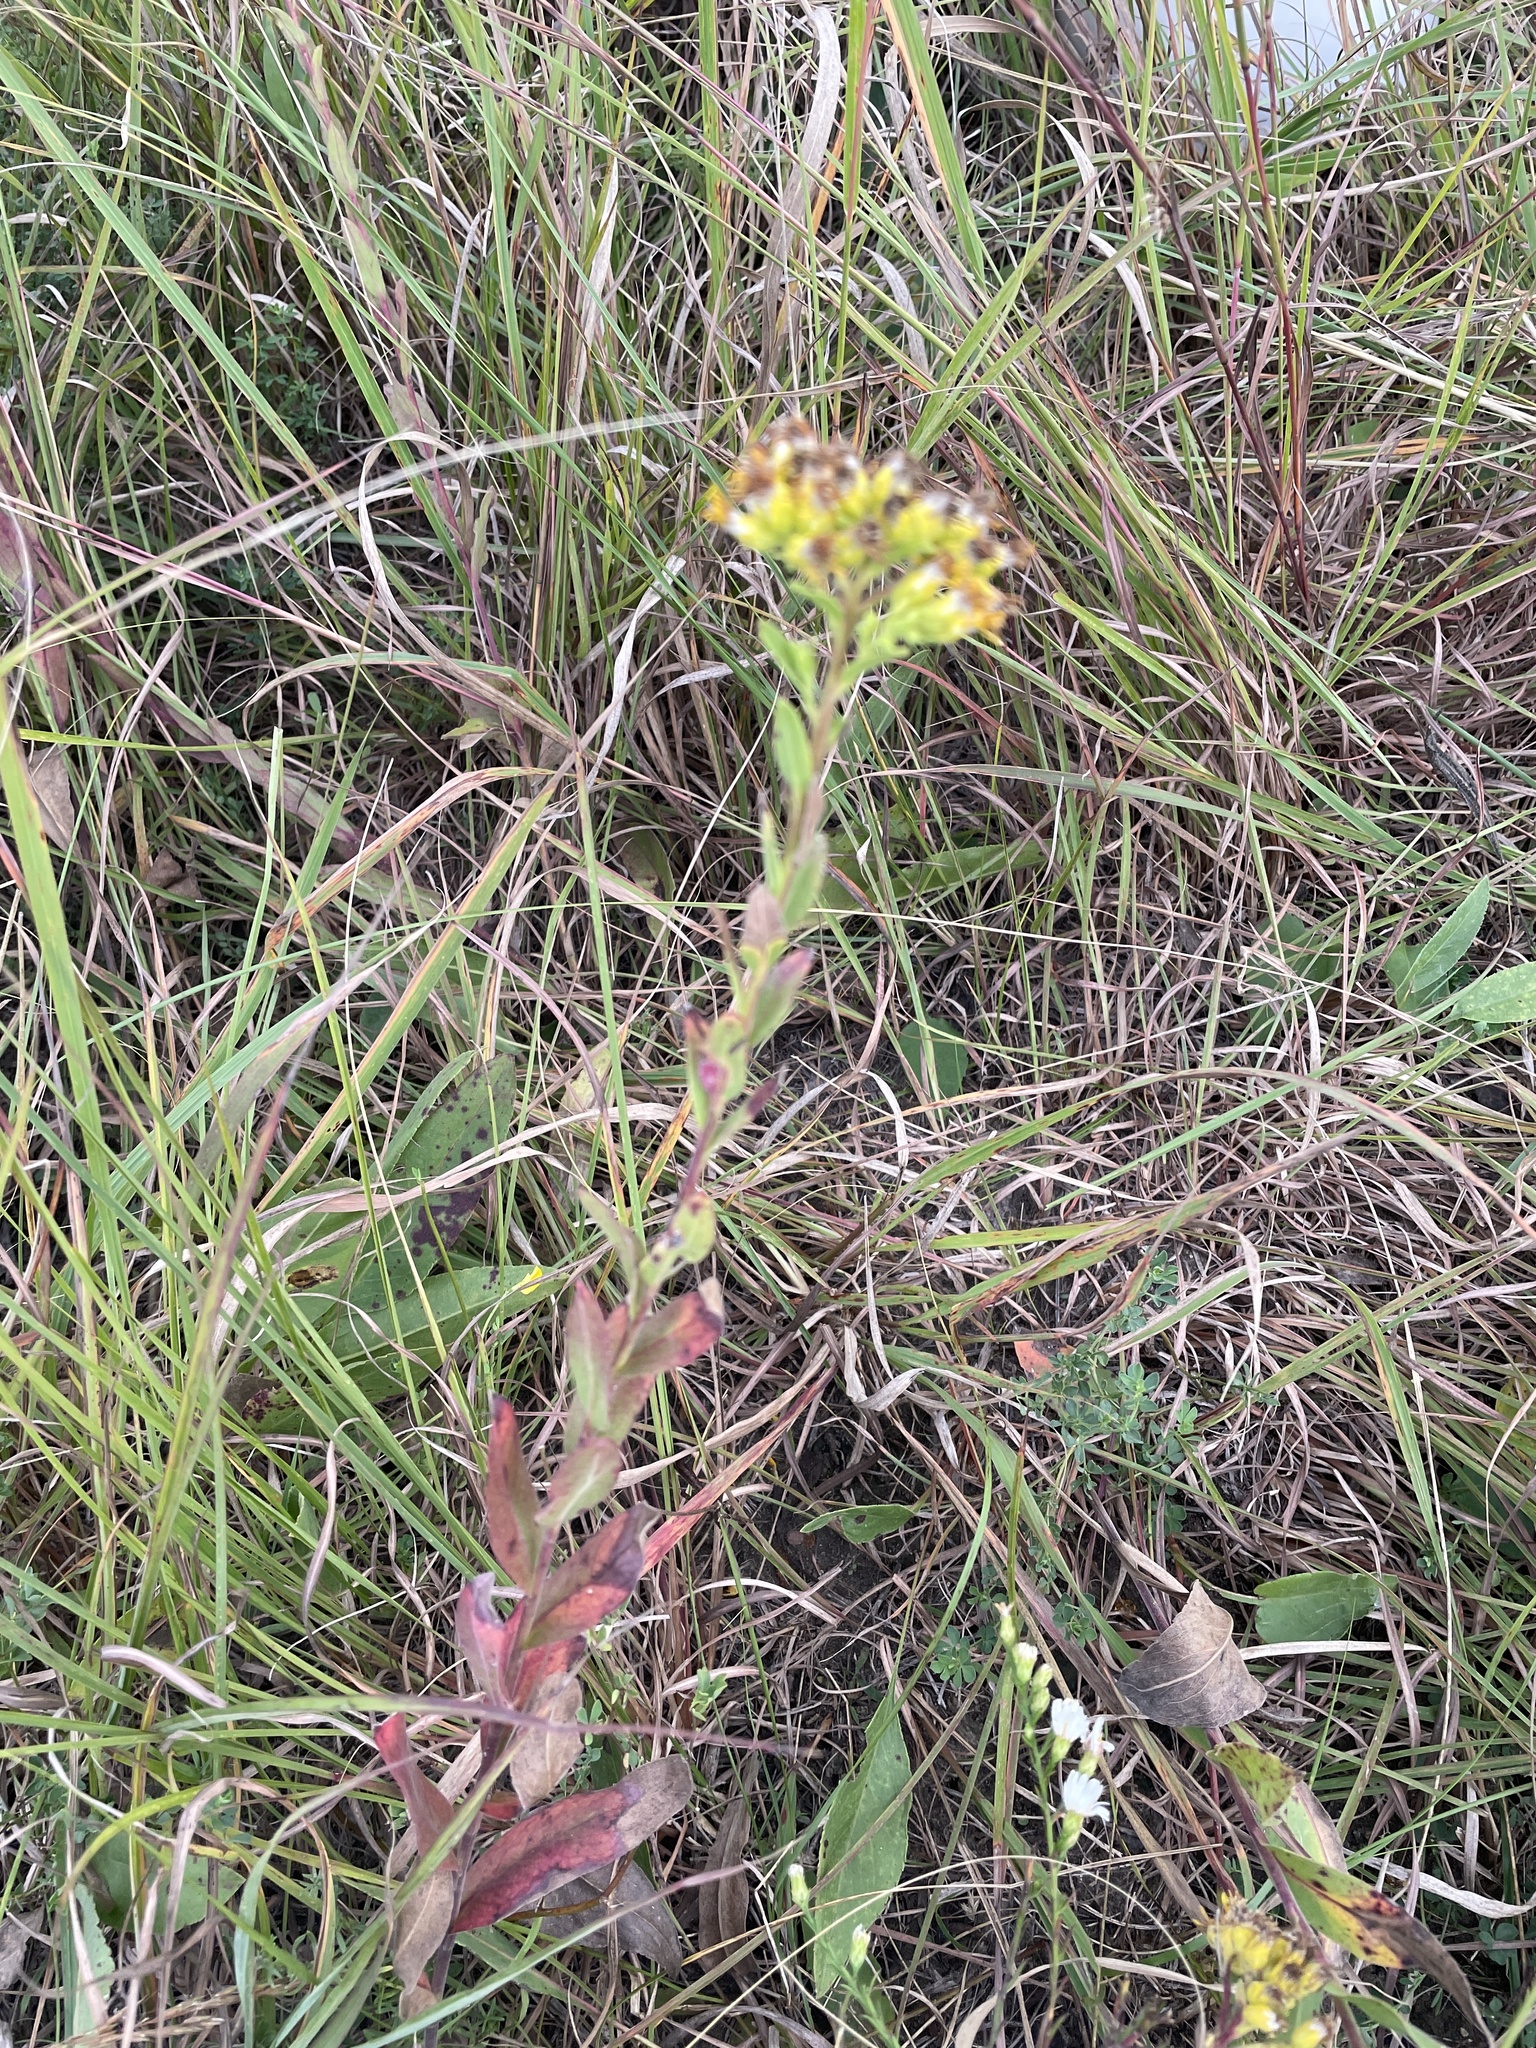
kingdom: Plantae
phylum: Tracheophyta
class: Magnoliopsida
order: Asterales
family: Asteraceae
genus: Solidago
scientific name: Solidago rigida
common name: Rigid goldenrod
